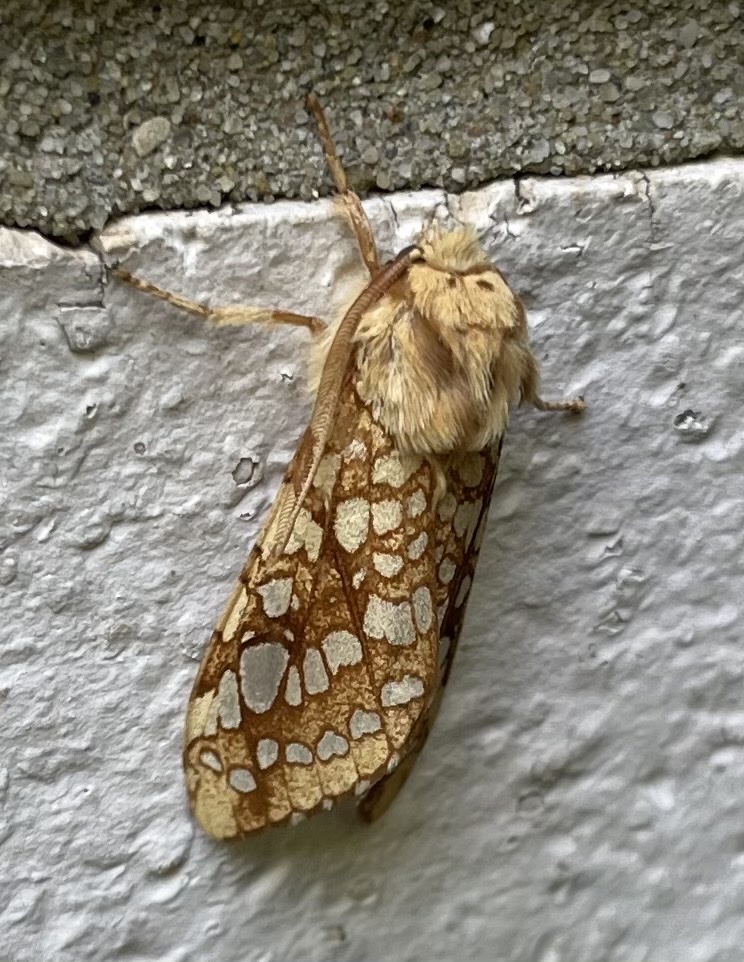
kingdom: Animalia
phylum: Arthropoda
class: Insecta
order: Lepidoptera
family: Erebidae
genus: Lophocampa
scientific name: Lophocampa caryae
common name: Hickory tussock moth
